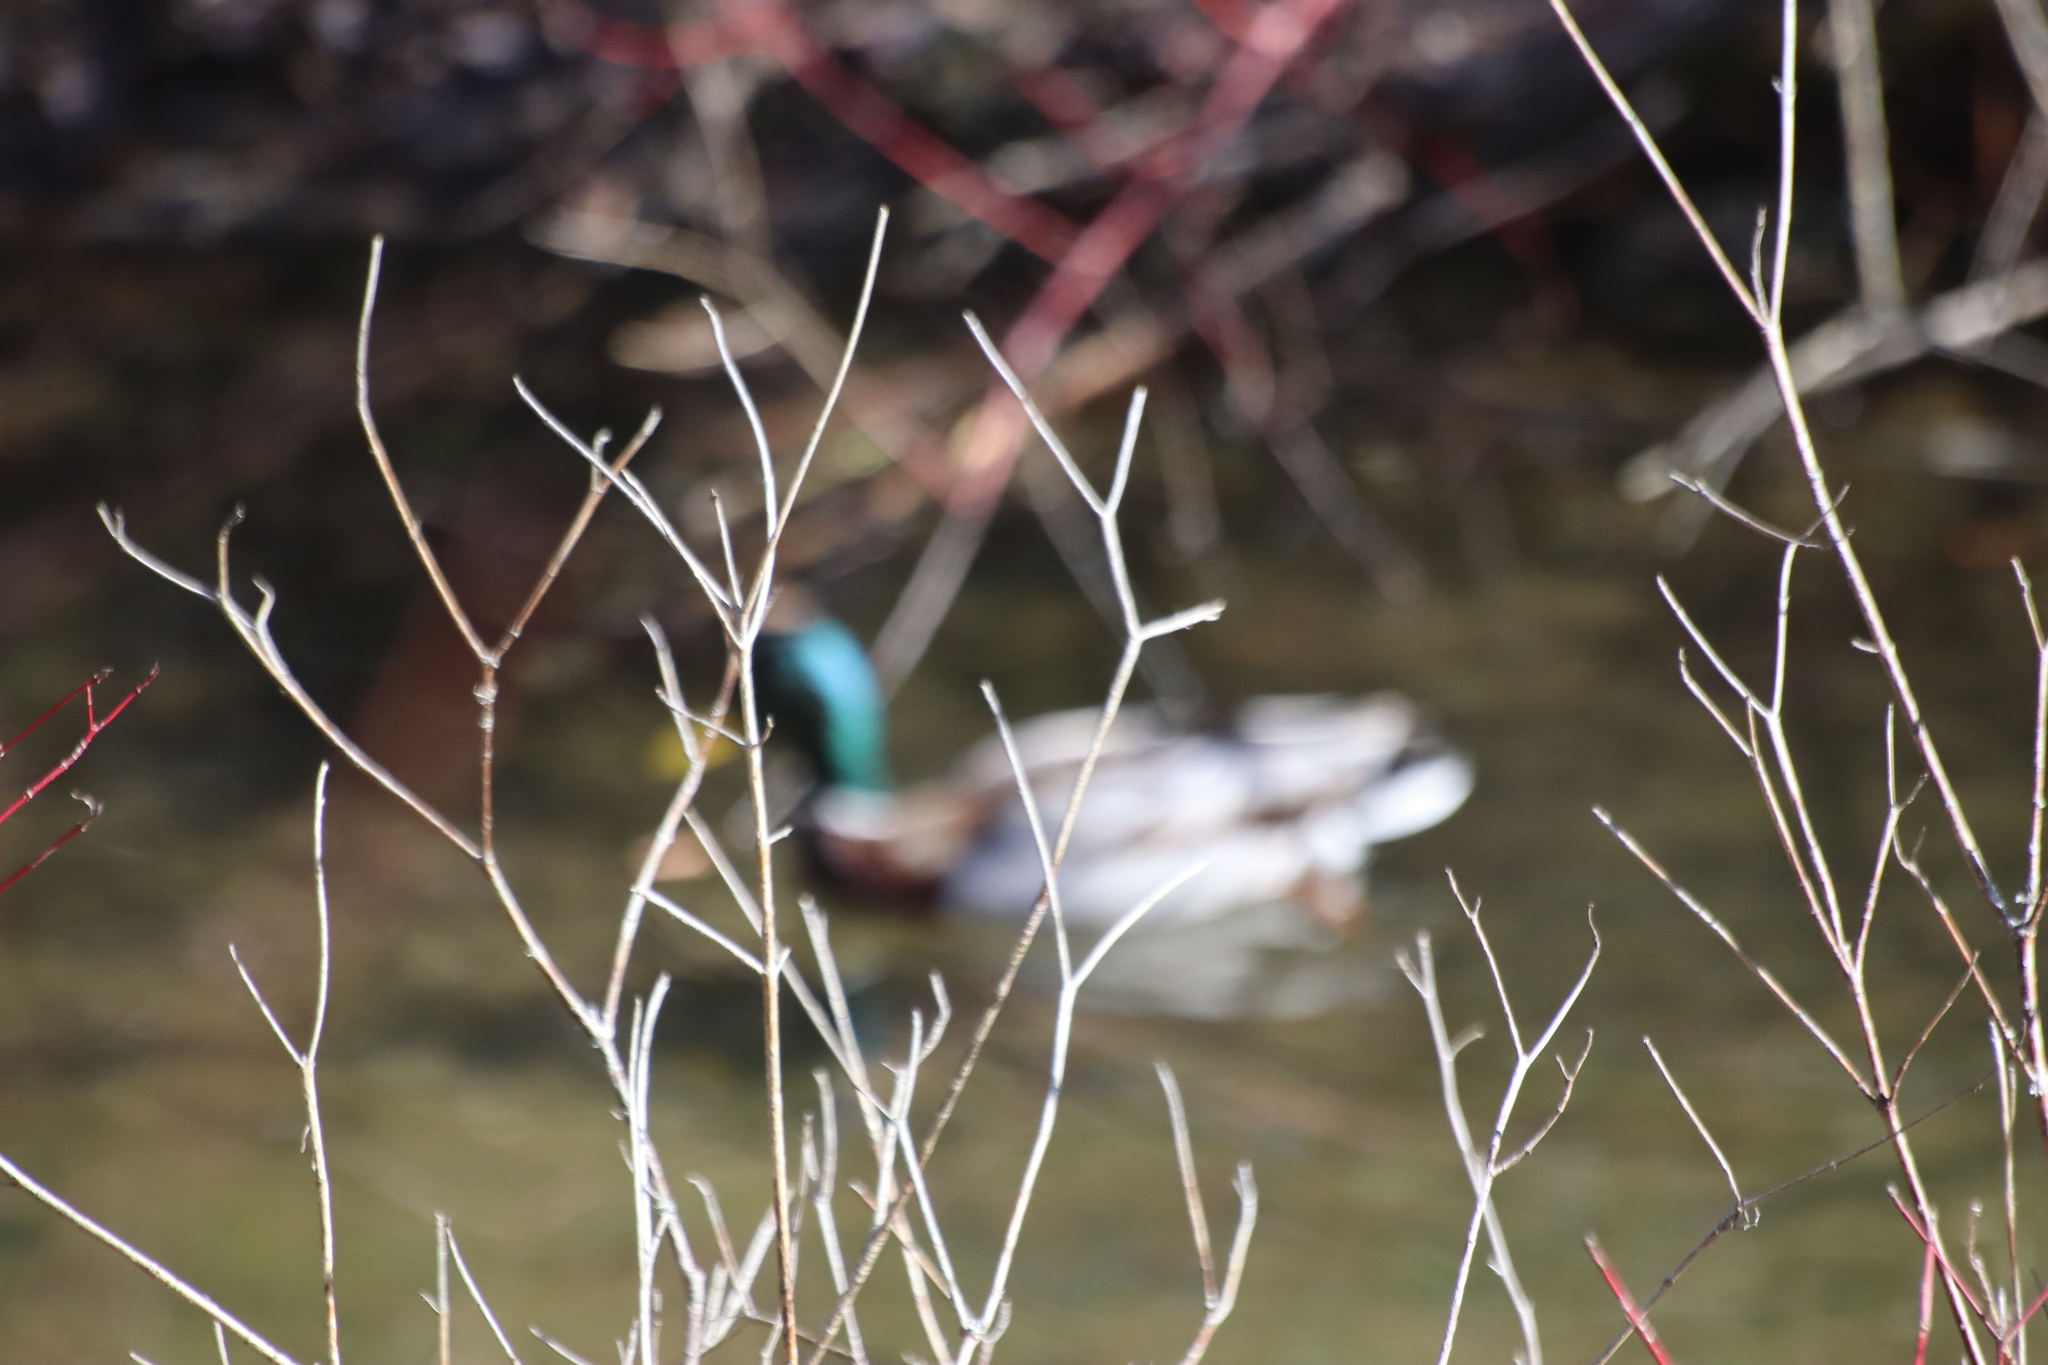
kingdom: Animalia
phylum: Chordata
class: Aves
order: Anseriformes
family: Anatidae
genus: Anas
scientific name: Anas platyrhynchos
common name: Mallard
